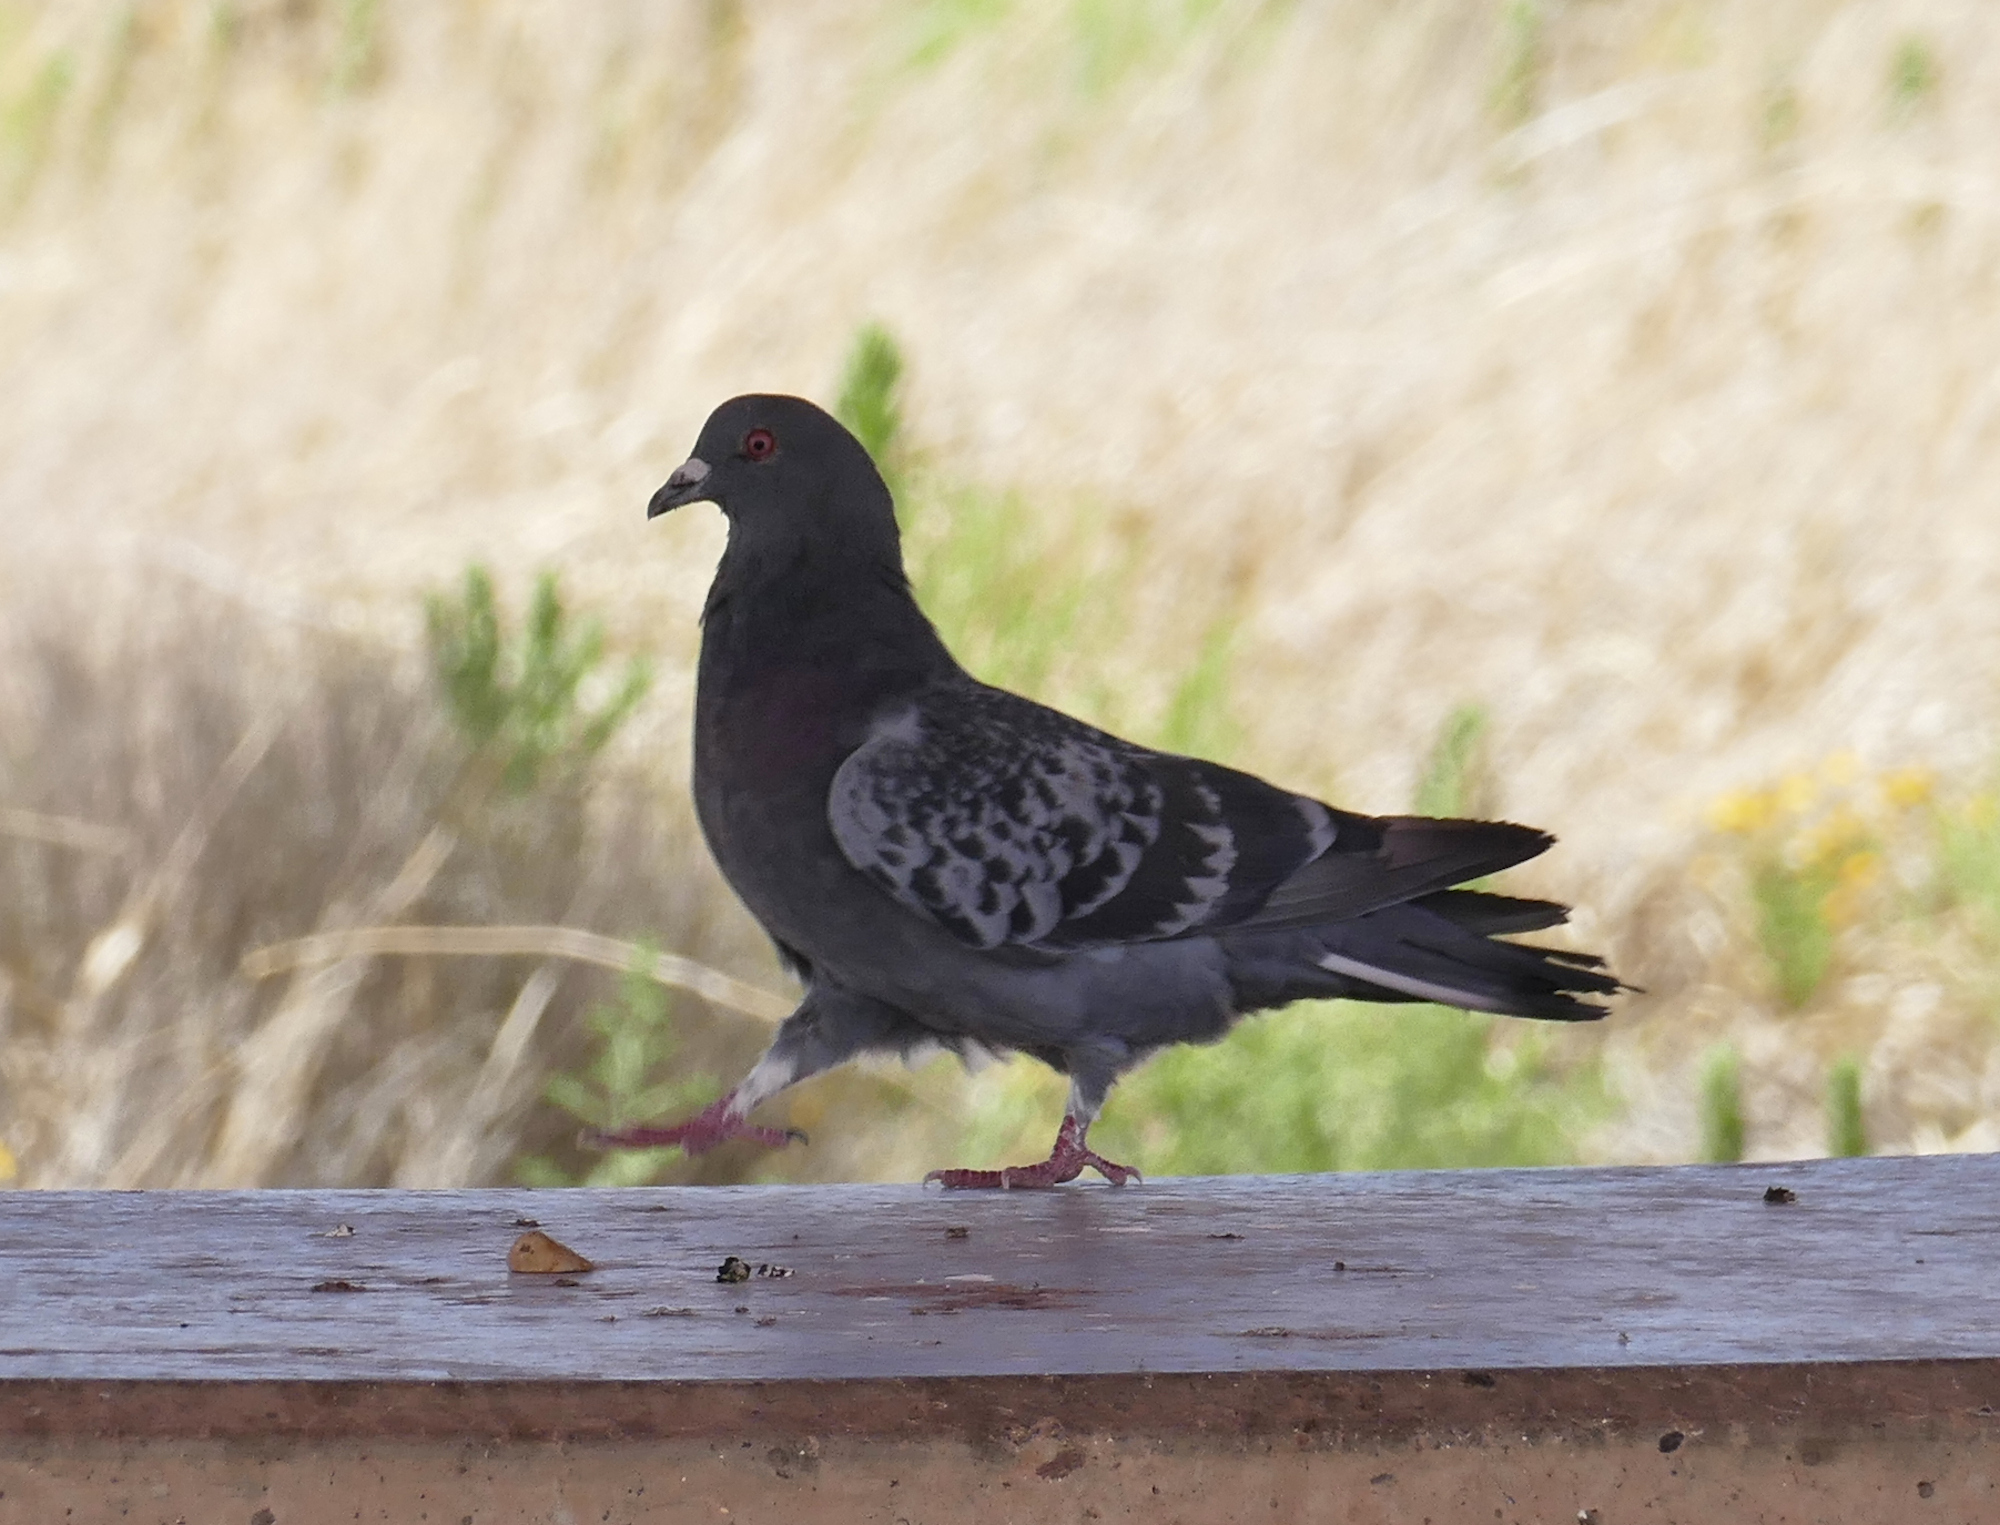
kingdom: Animalia
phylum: Chordata
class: Aves
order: Columbiformes
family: Columbidae
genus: Columba
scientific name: Columba livia
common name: Rock pigeon
